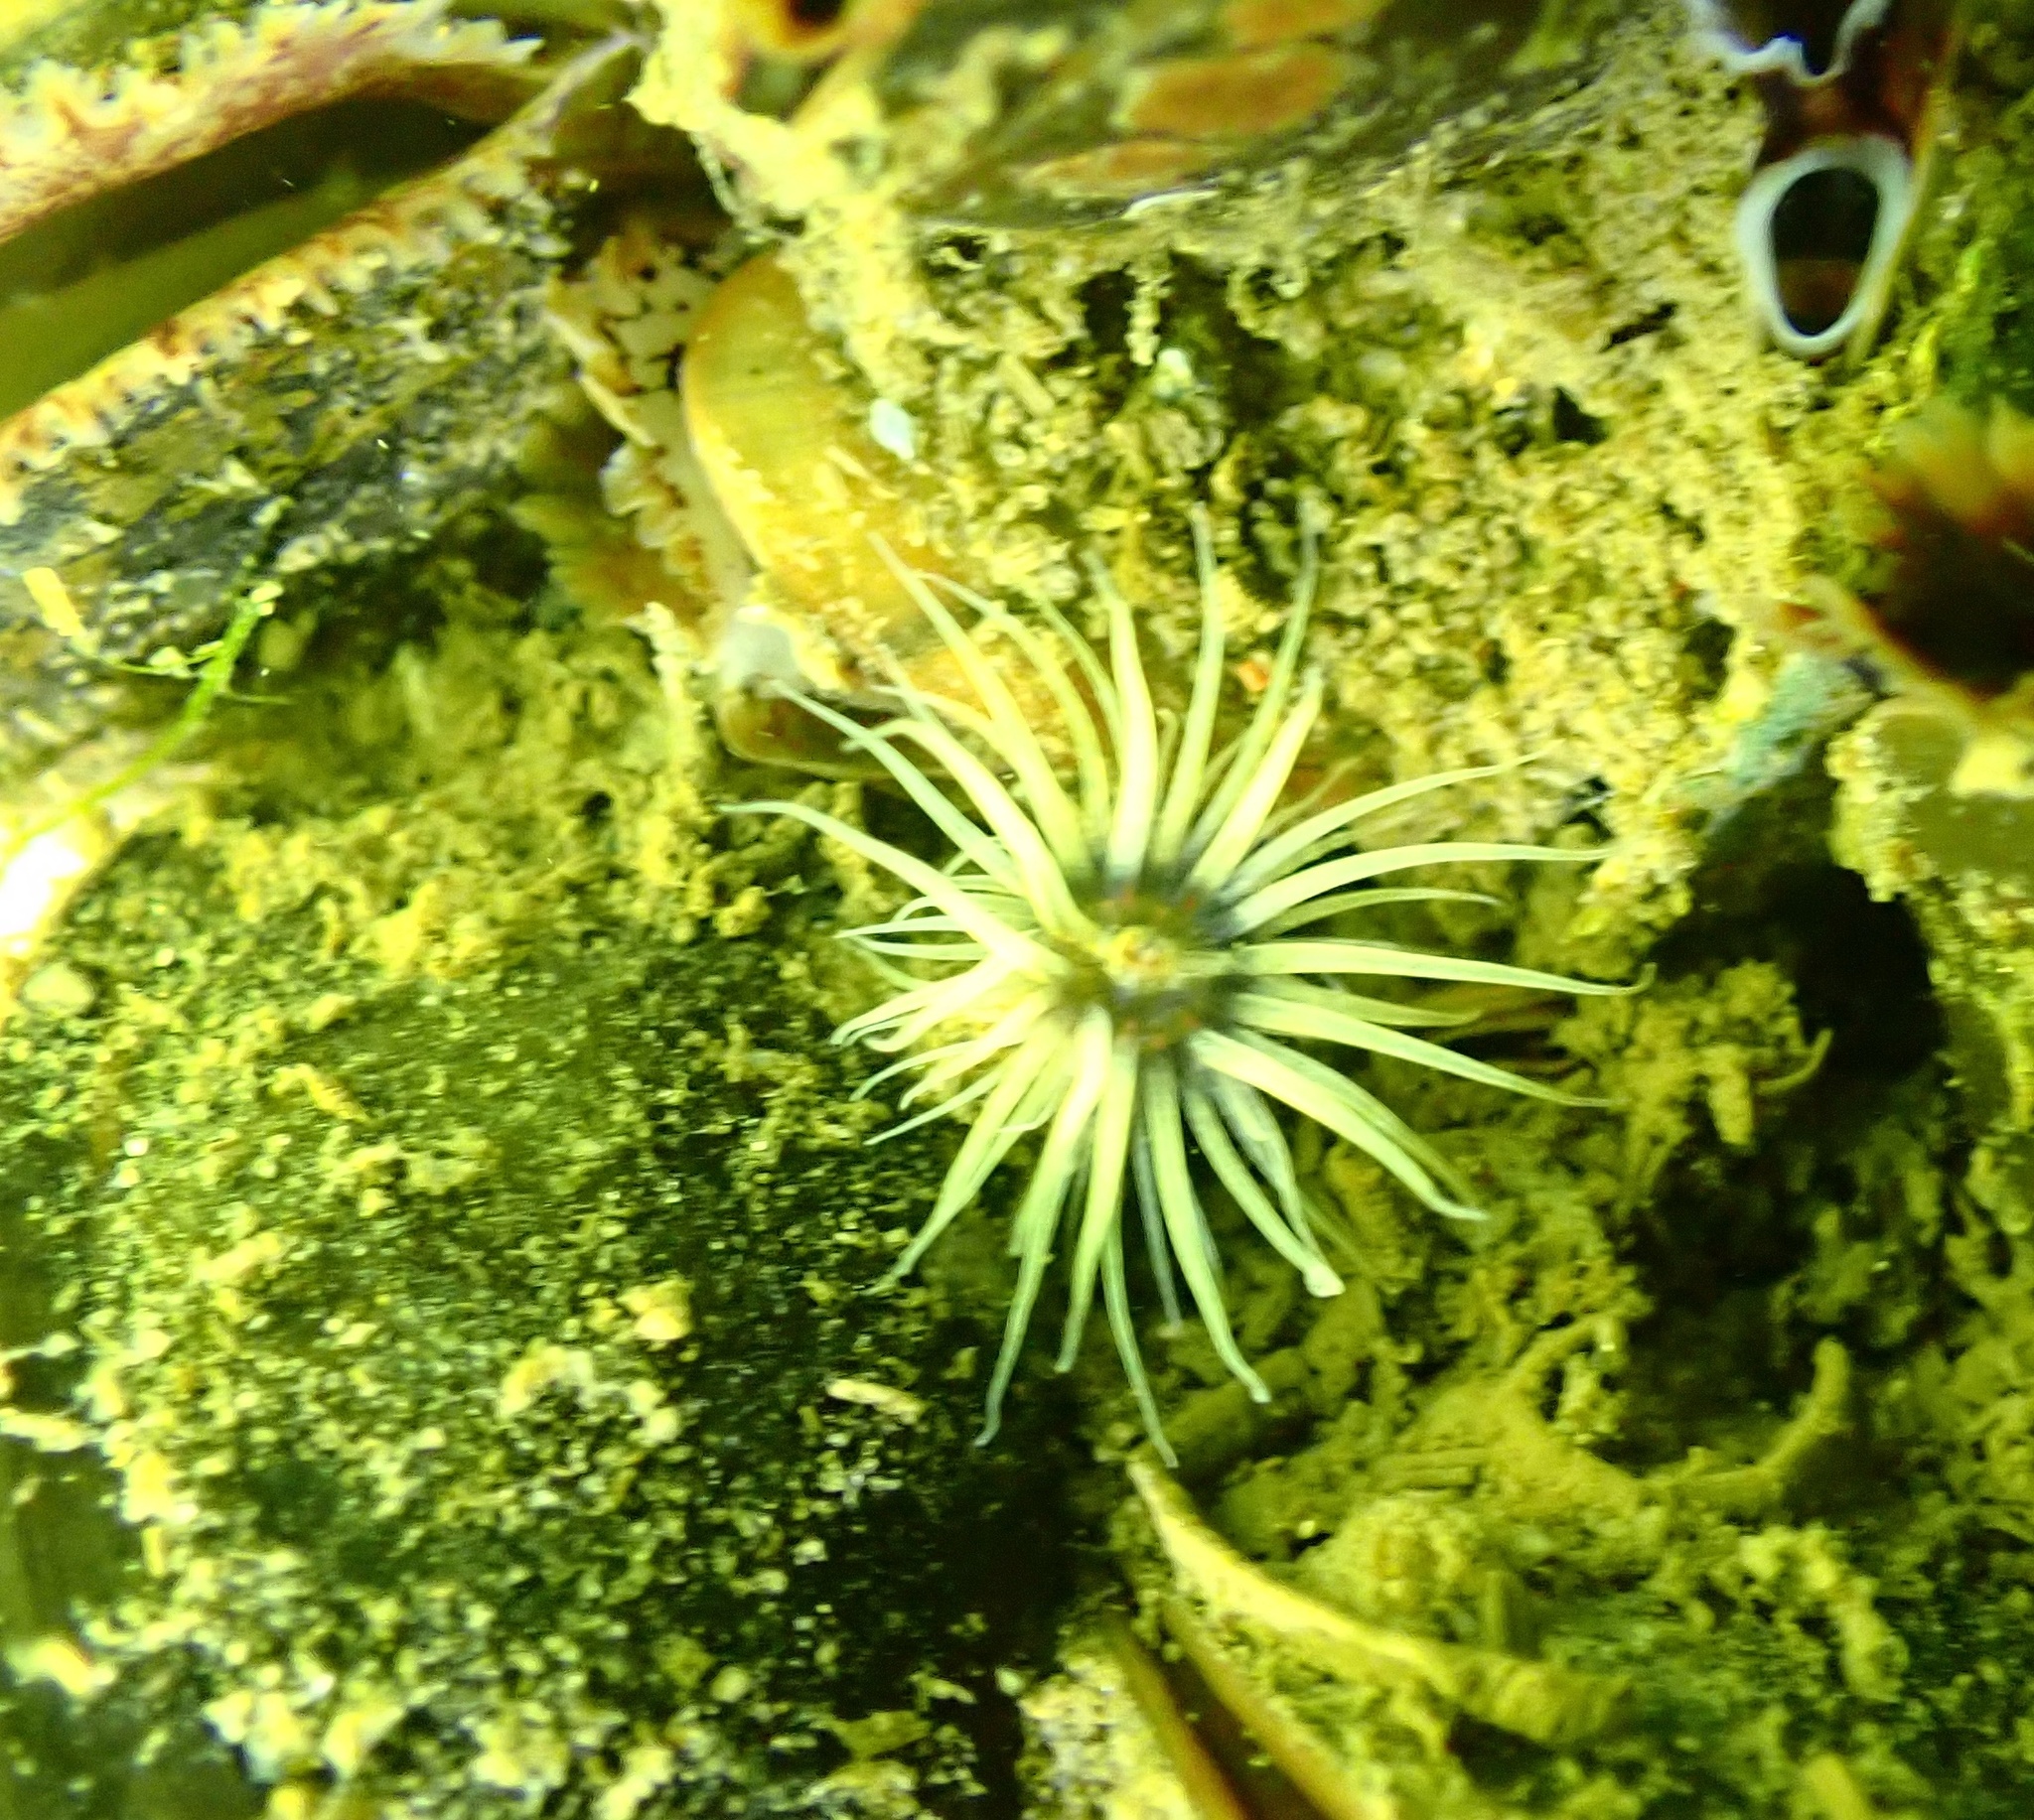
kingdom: Animalia
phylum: Cnidaria
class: Anthozoa
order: Actiniaria
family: Diadumenidae
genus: Diadumene
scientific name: Diadumene lineata
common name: Orange-striped anemone
